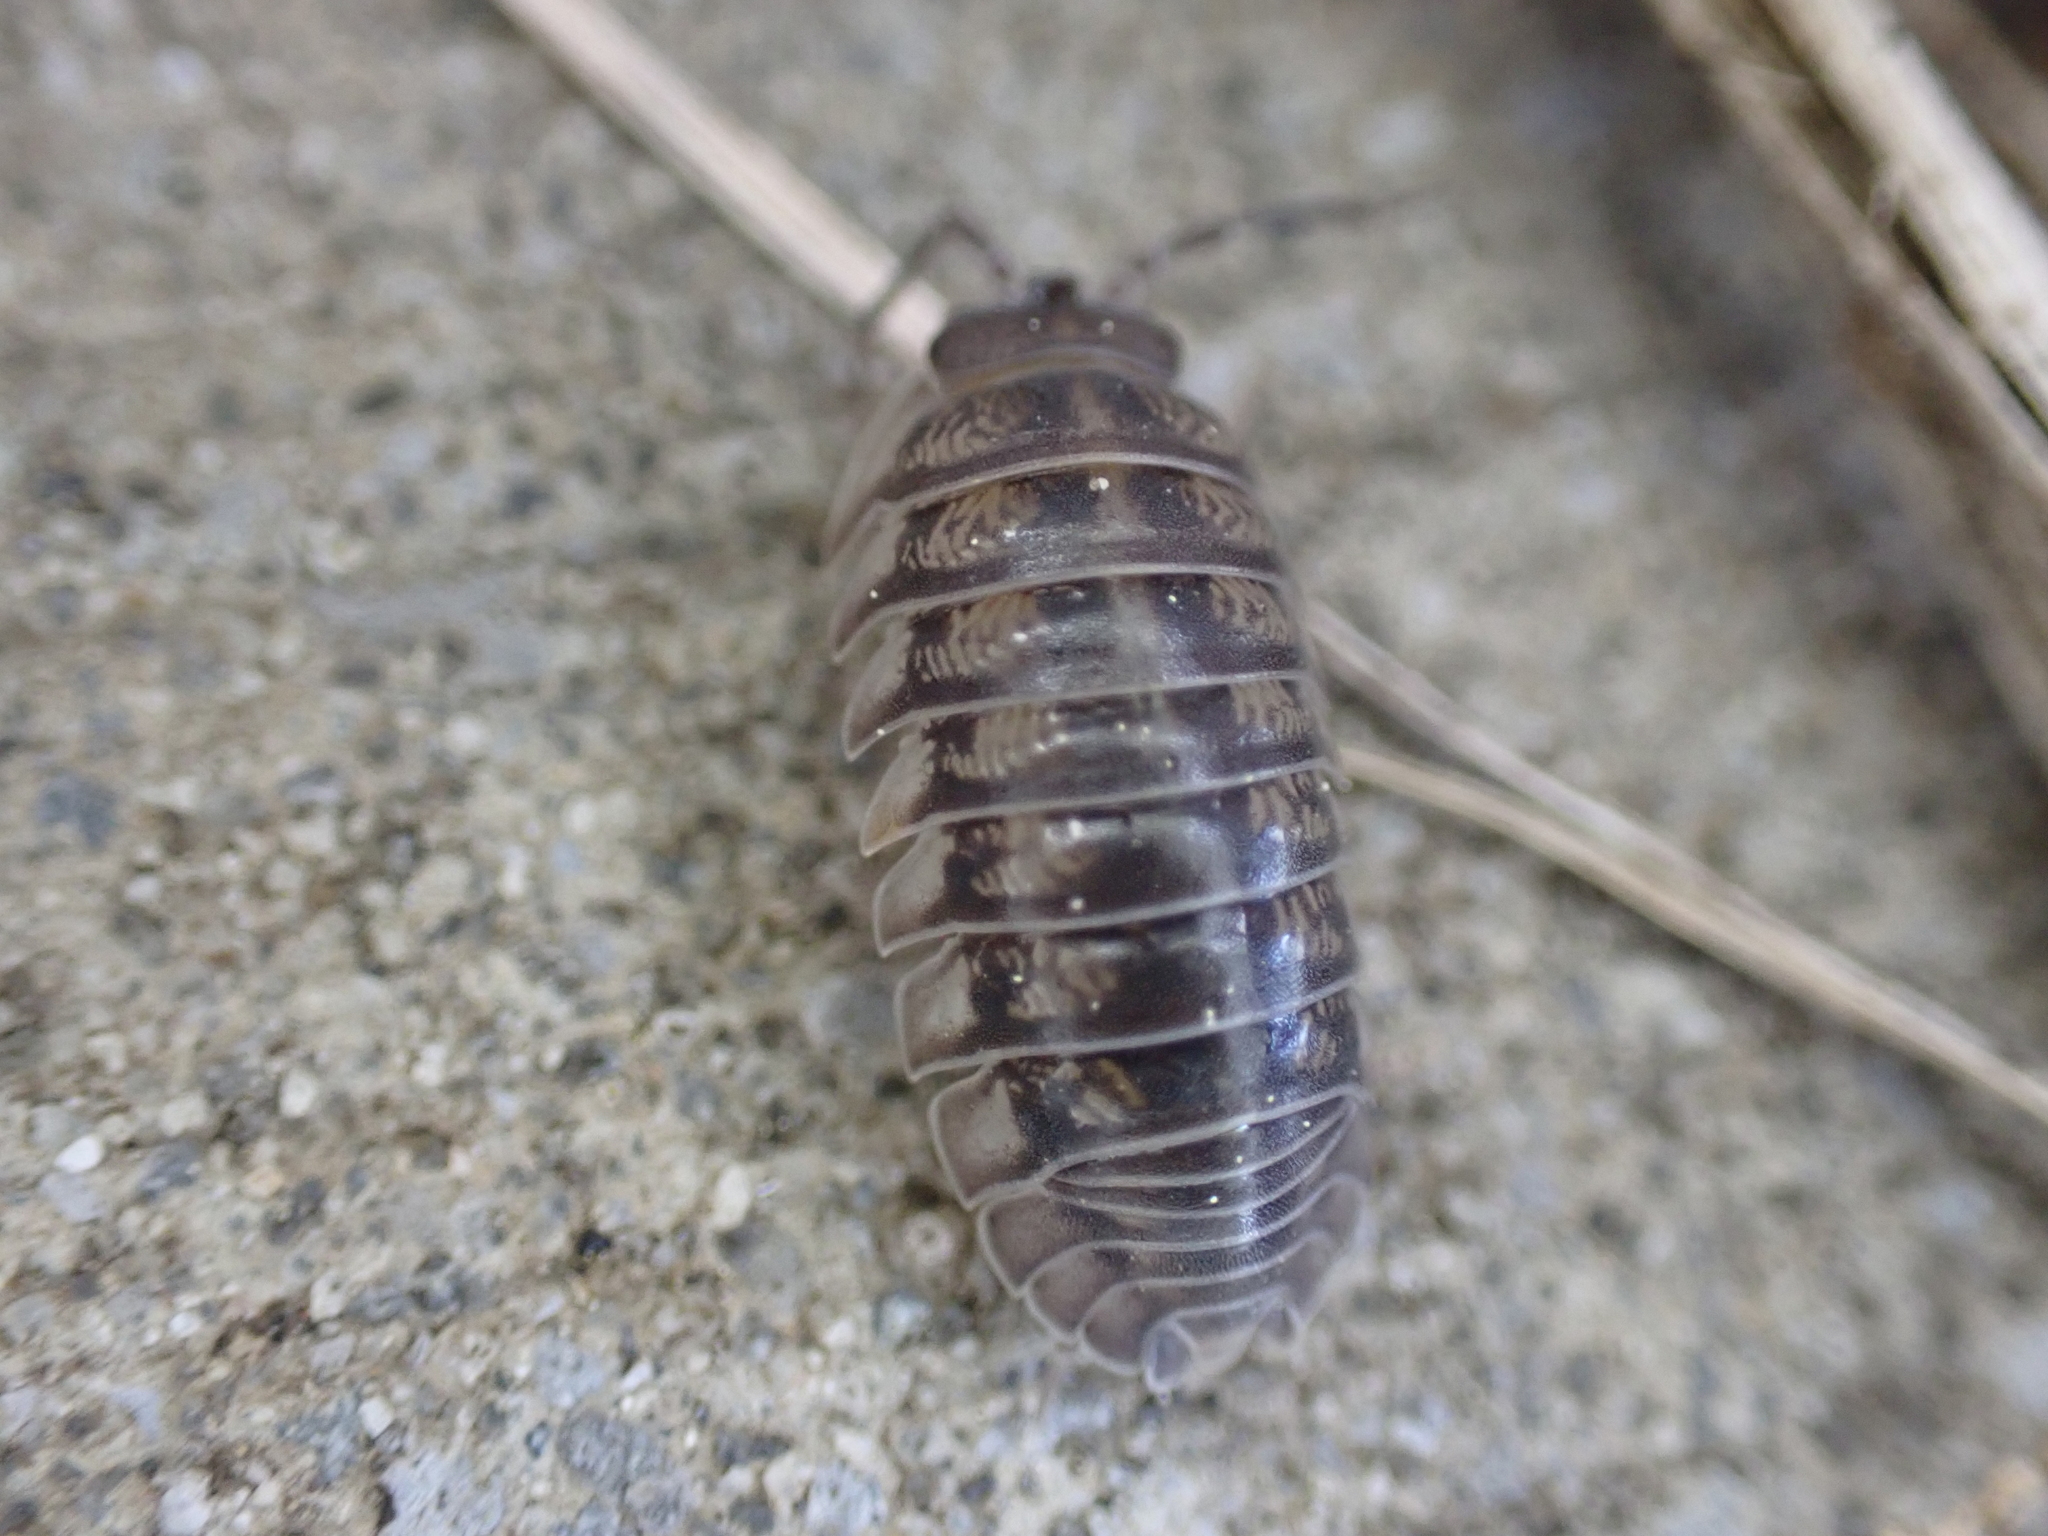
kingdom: Animalia
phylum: Arthropoda
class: Malacostraca
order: Isopoda
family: Armadillidiidae
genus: Armadillidium
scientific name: Armadillidium nasatum
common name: Isopod
